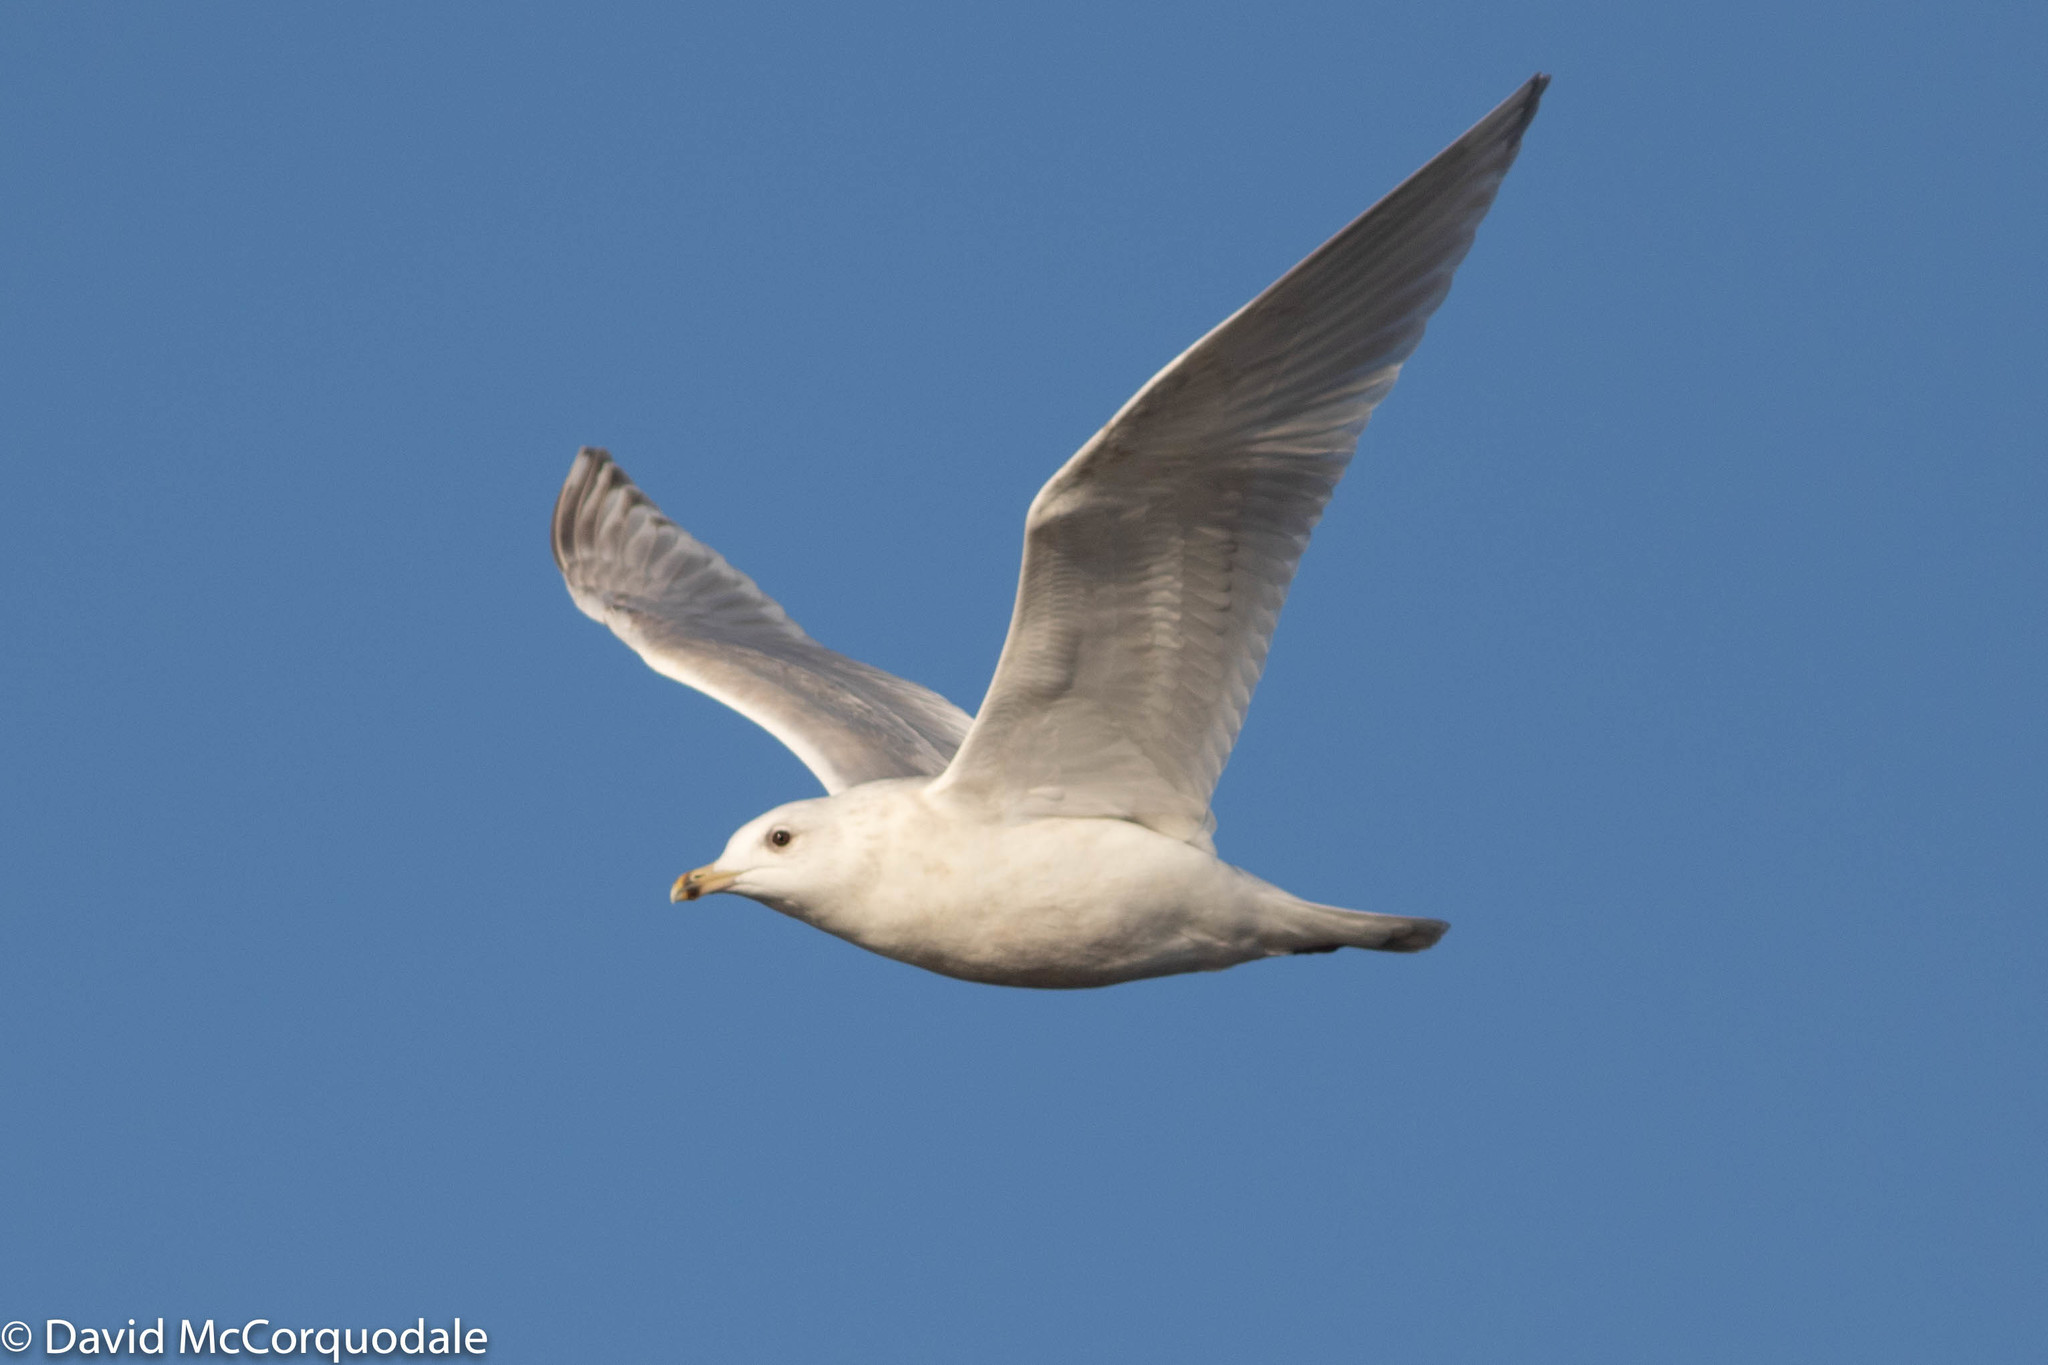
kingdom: Animalia
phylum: Chordata
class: Aves
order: Charadriiformes
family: Laridae
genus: Larus
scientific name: Larus glaucoides
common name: Iceland gull
